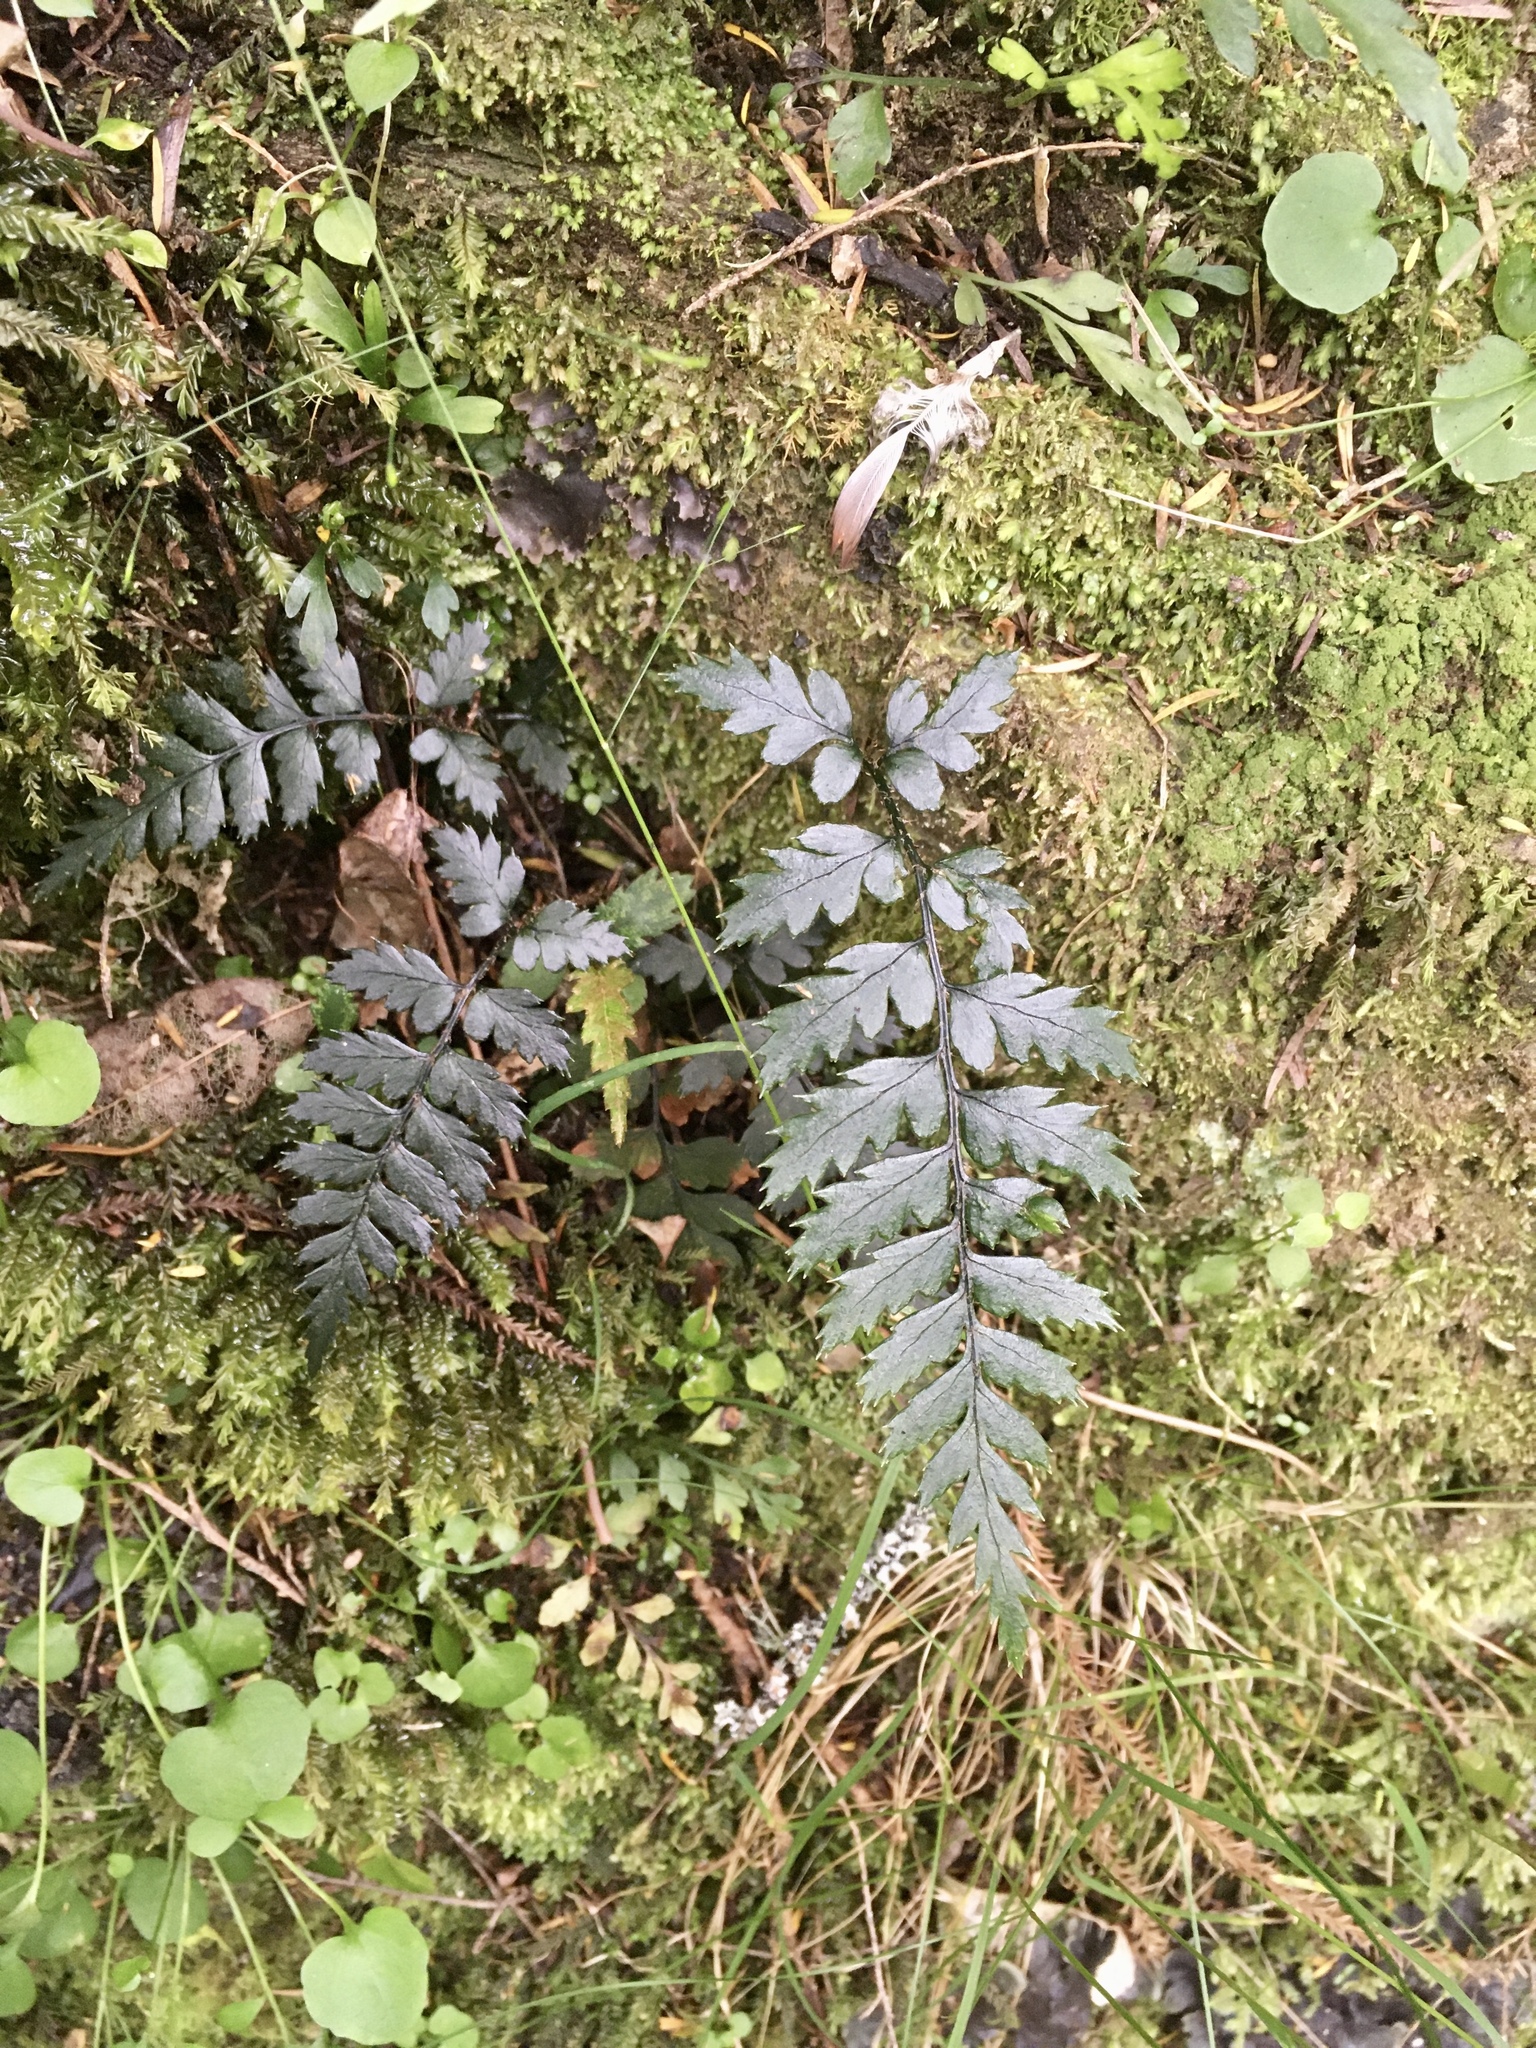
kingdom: Plantae
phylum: Tracheophyta
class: Polypodiopsida
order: Polypodiales
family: Dryopteridaceae
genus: Polystichum
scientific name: Polystichum neozelandicum
